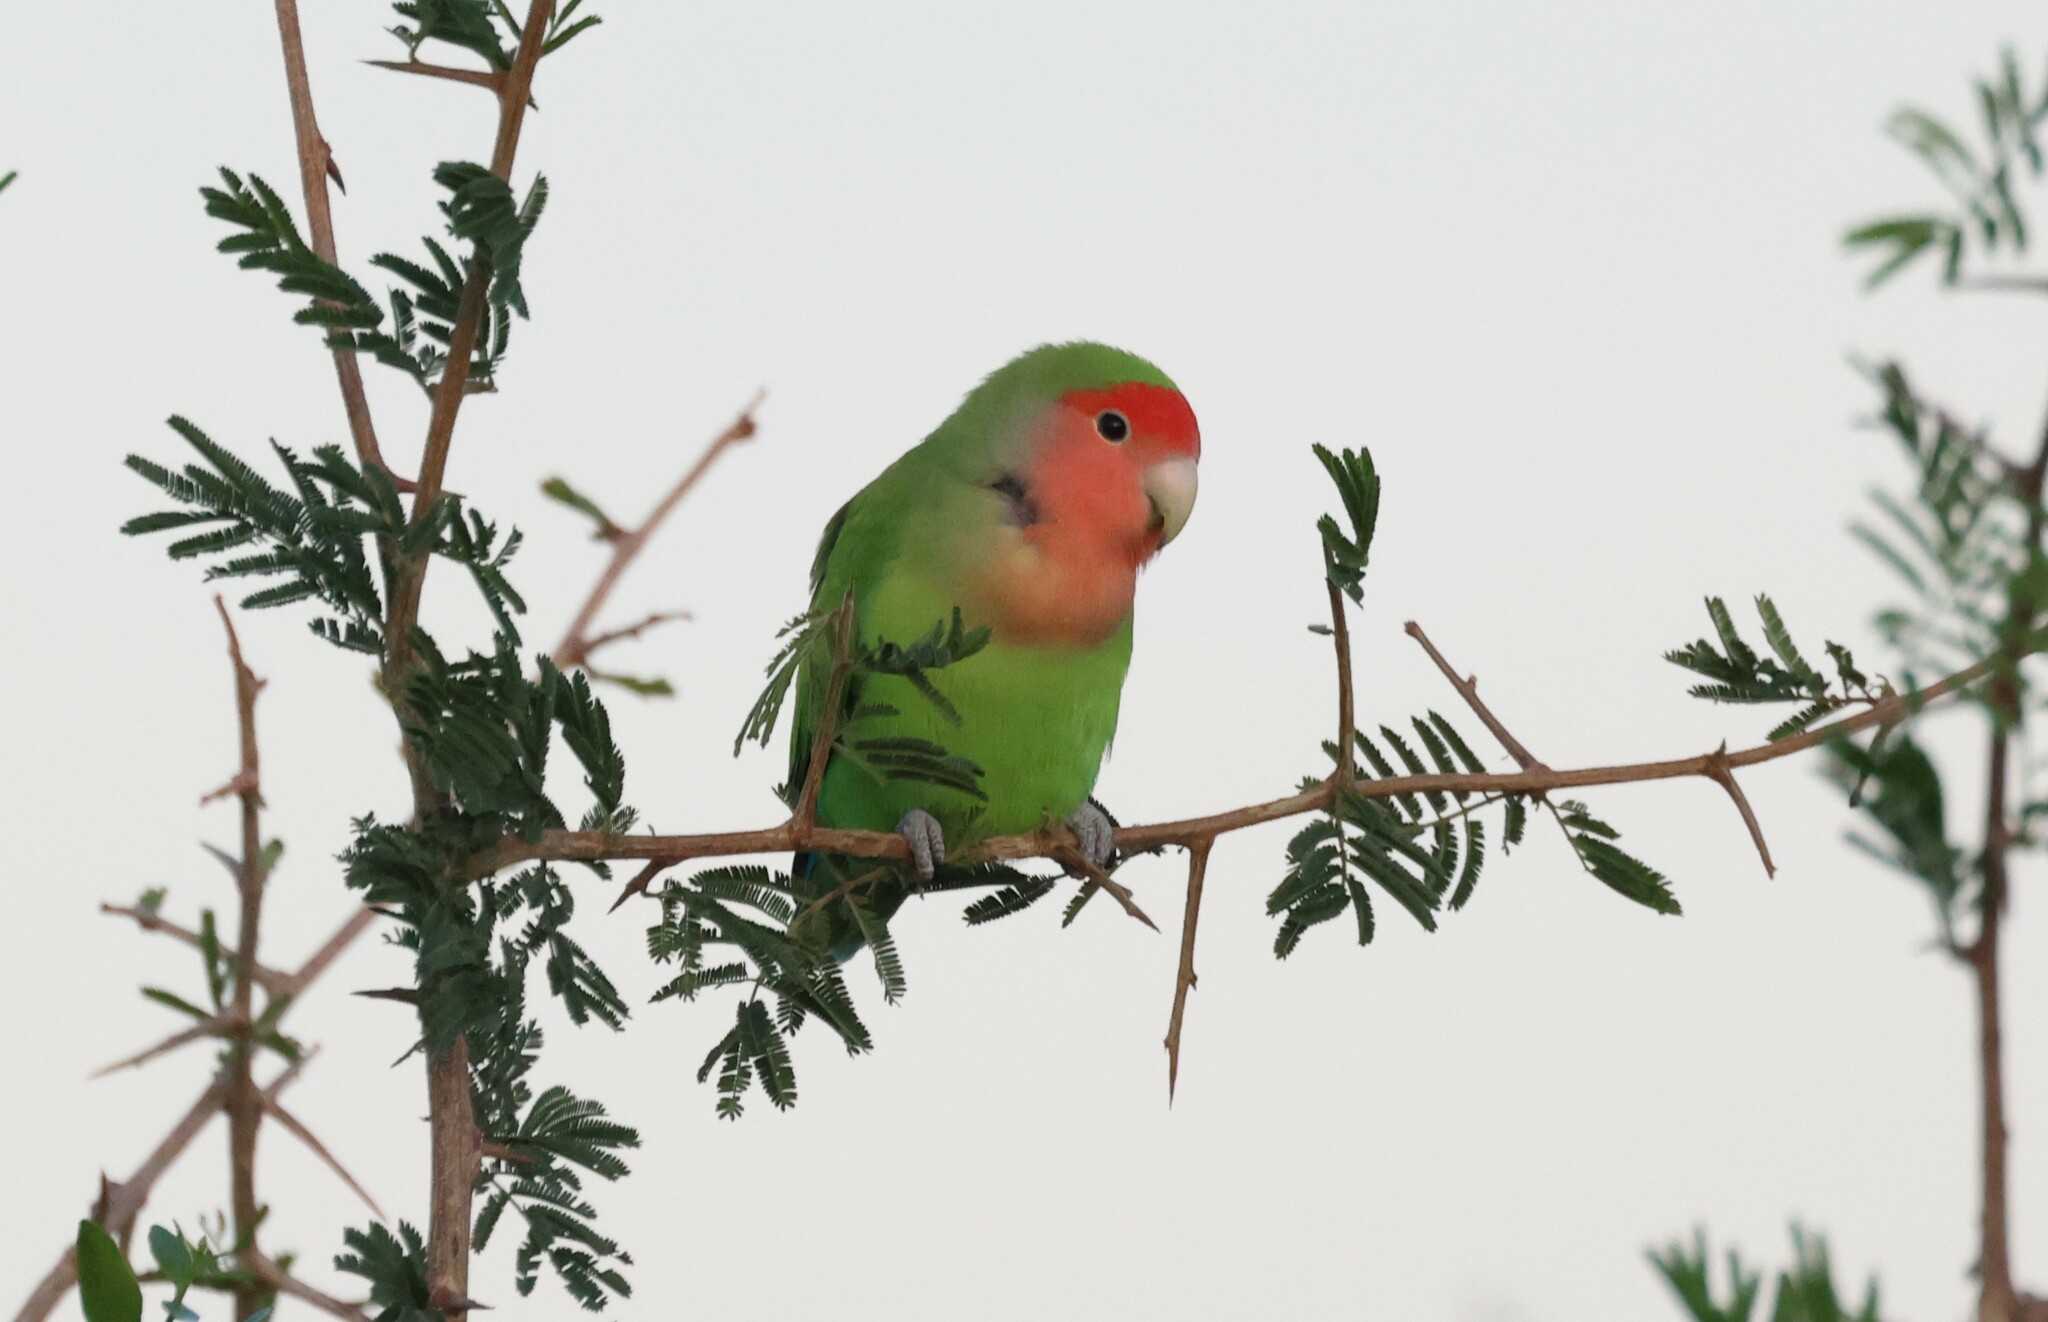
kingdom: Animalia
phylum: Chordata
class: Aves
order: Psittaciformes
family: Psittacidae
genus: Agapornis
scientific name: Agapornis roseicollis
